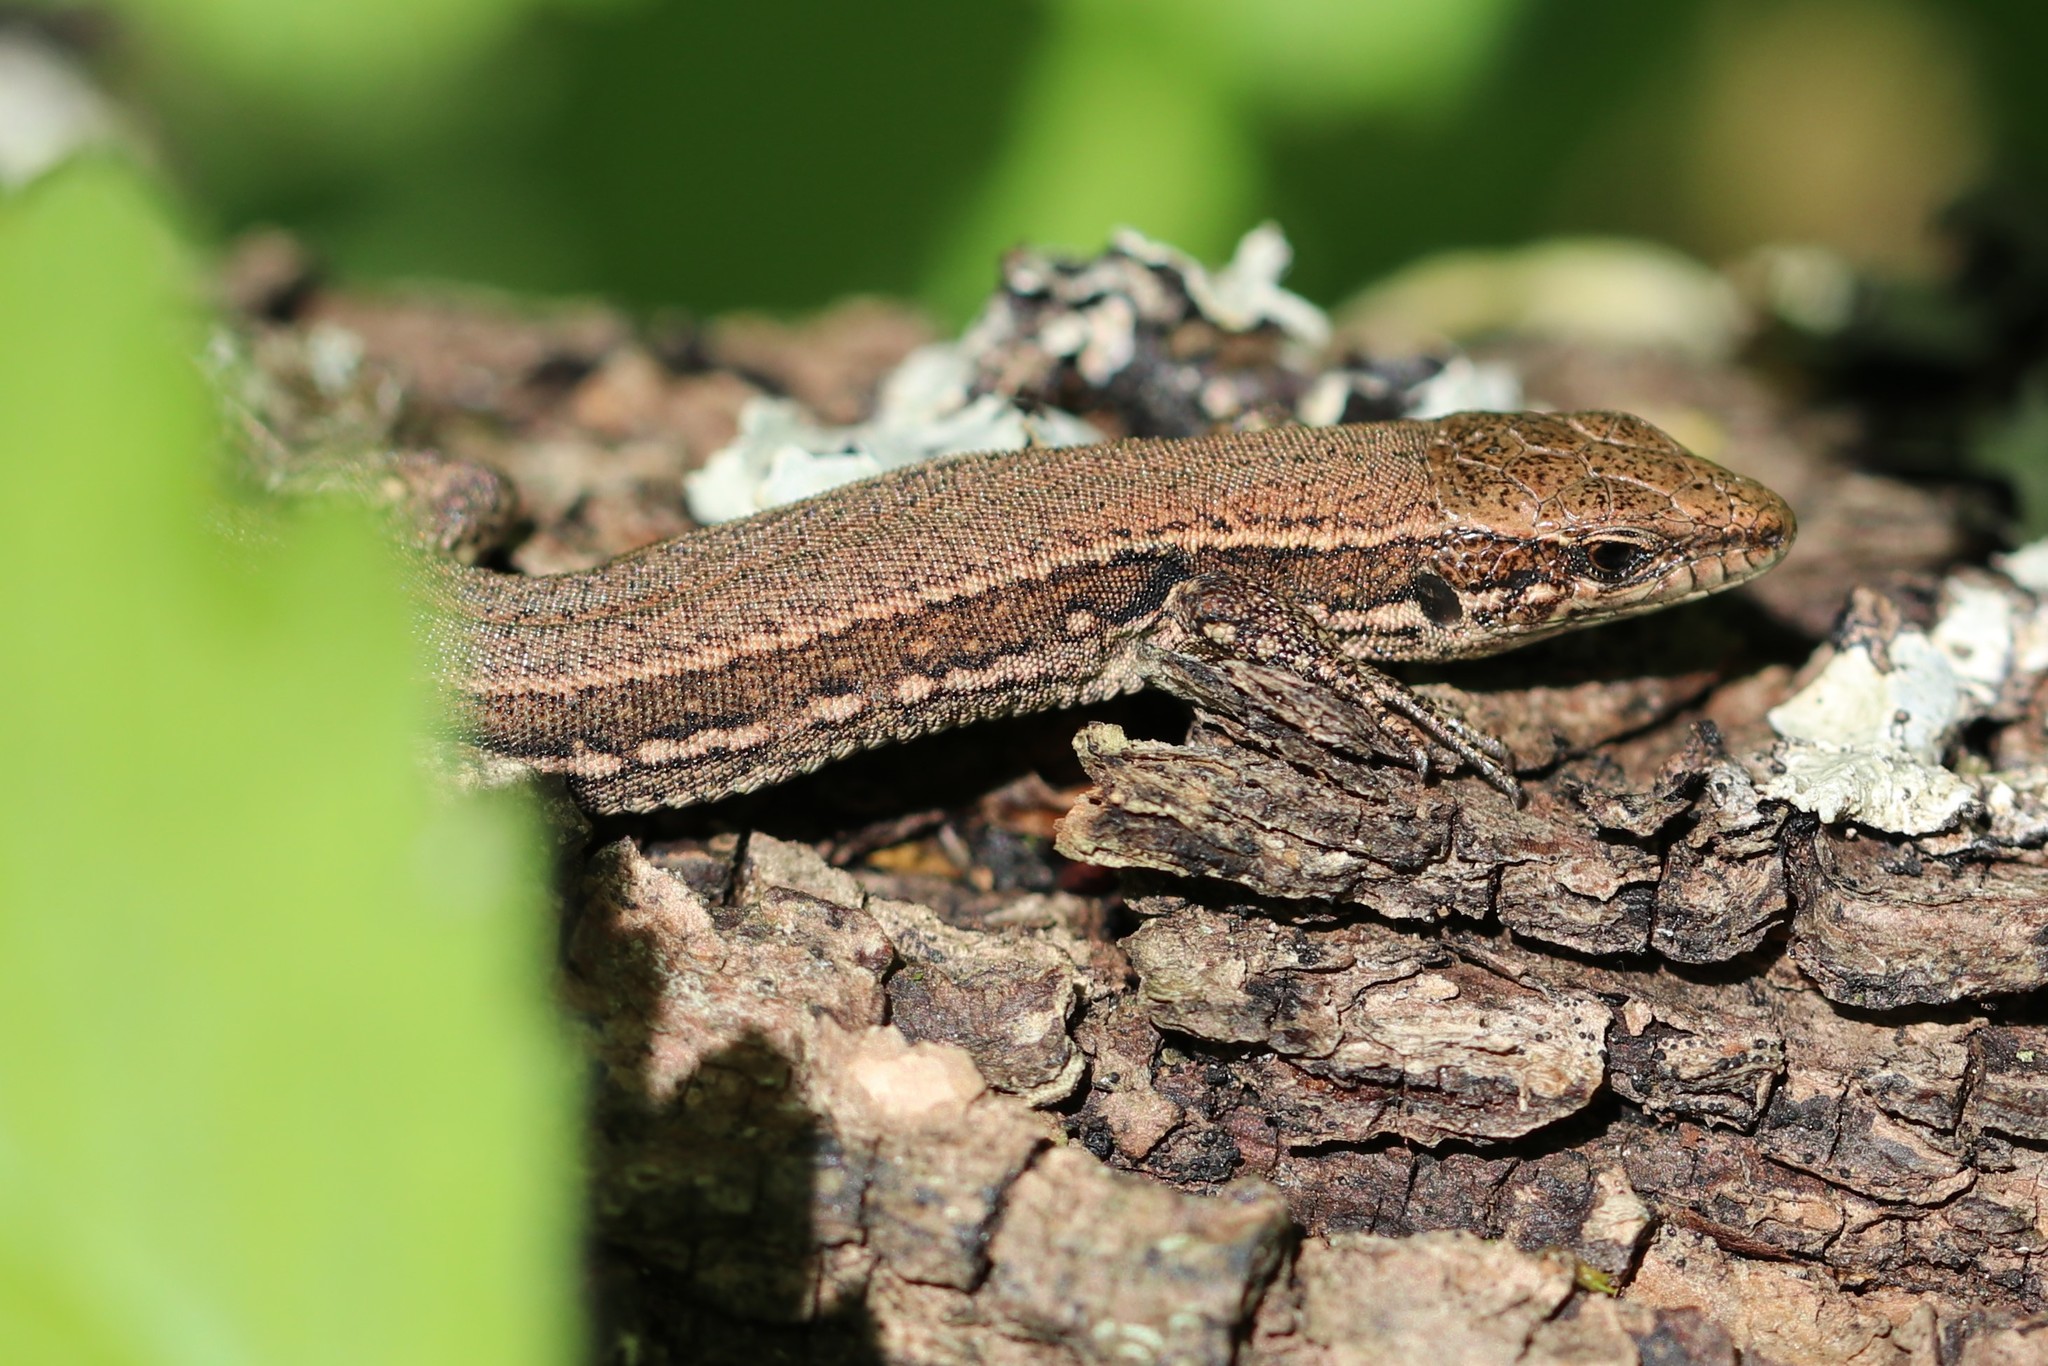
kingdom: Animalia
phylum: Chordata
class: Squamata
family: Lacertidae
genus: Podarcis
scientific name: Podarcis muralis
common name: Common wall lizard
